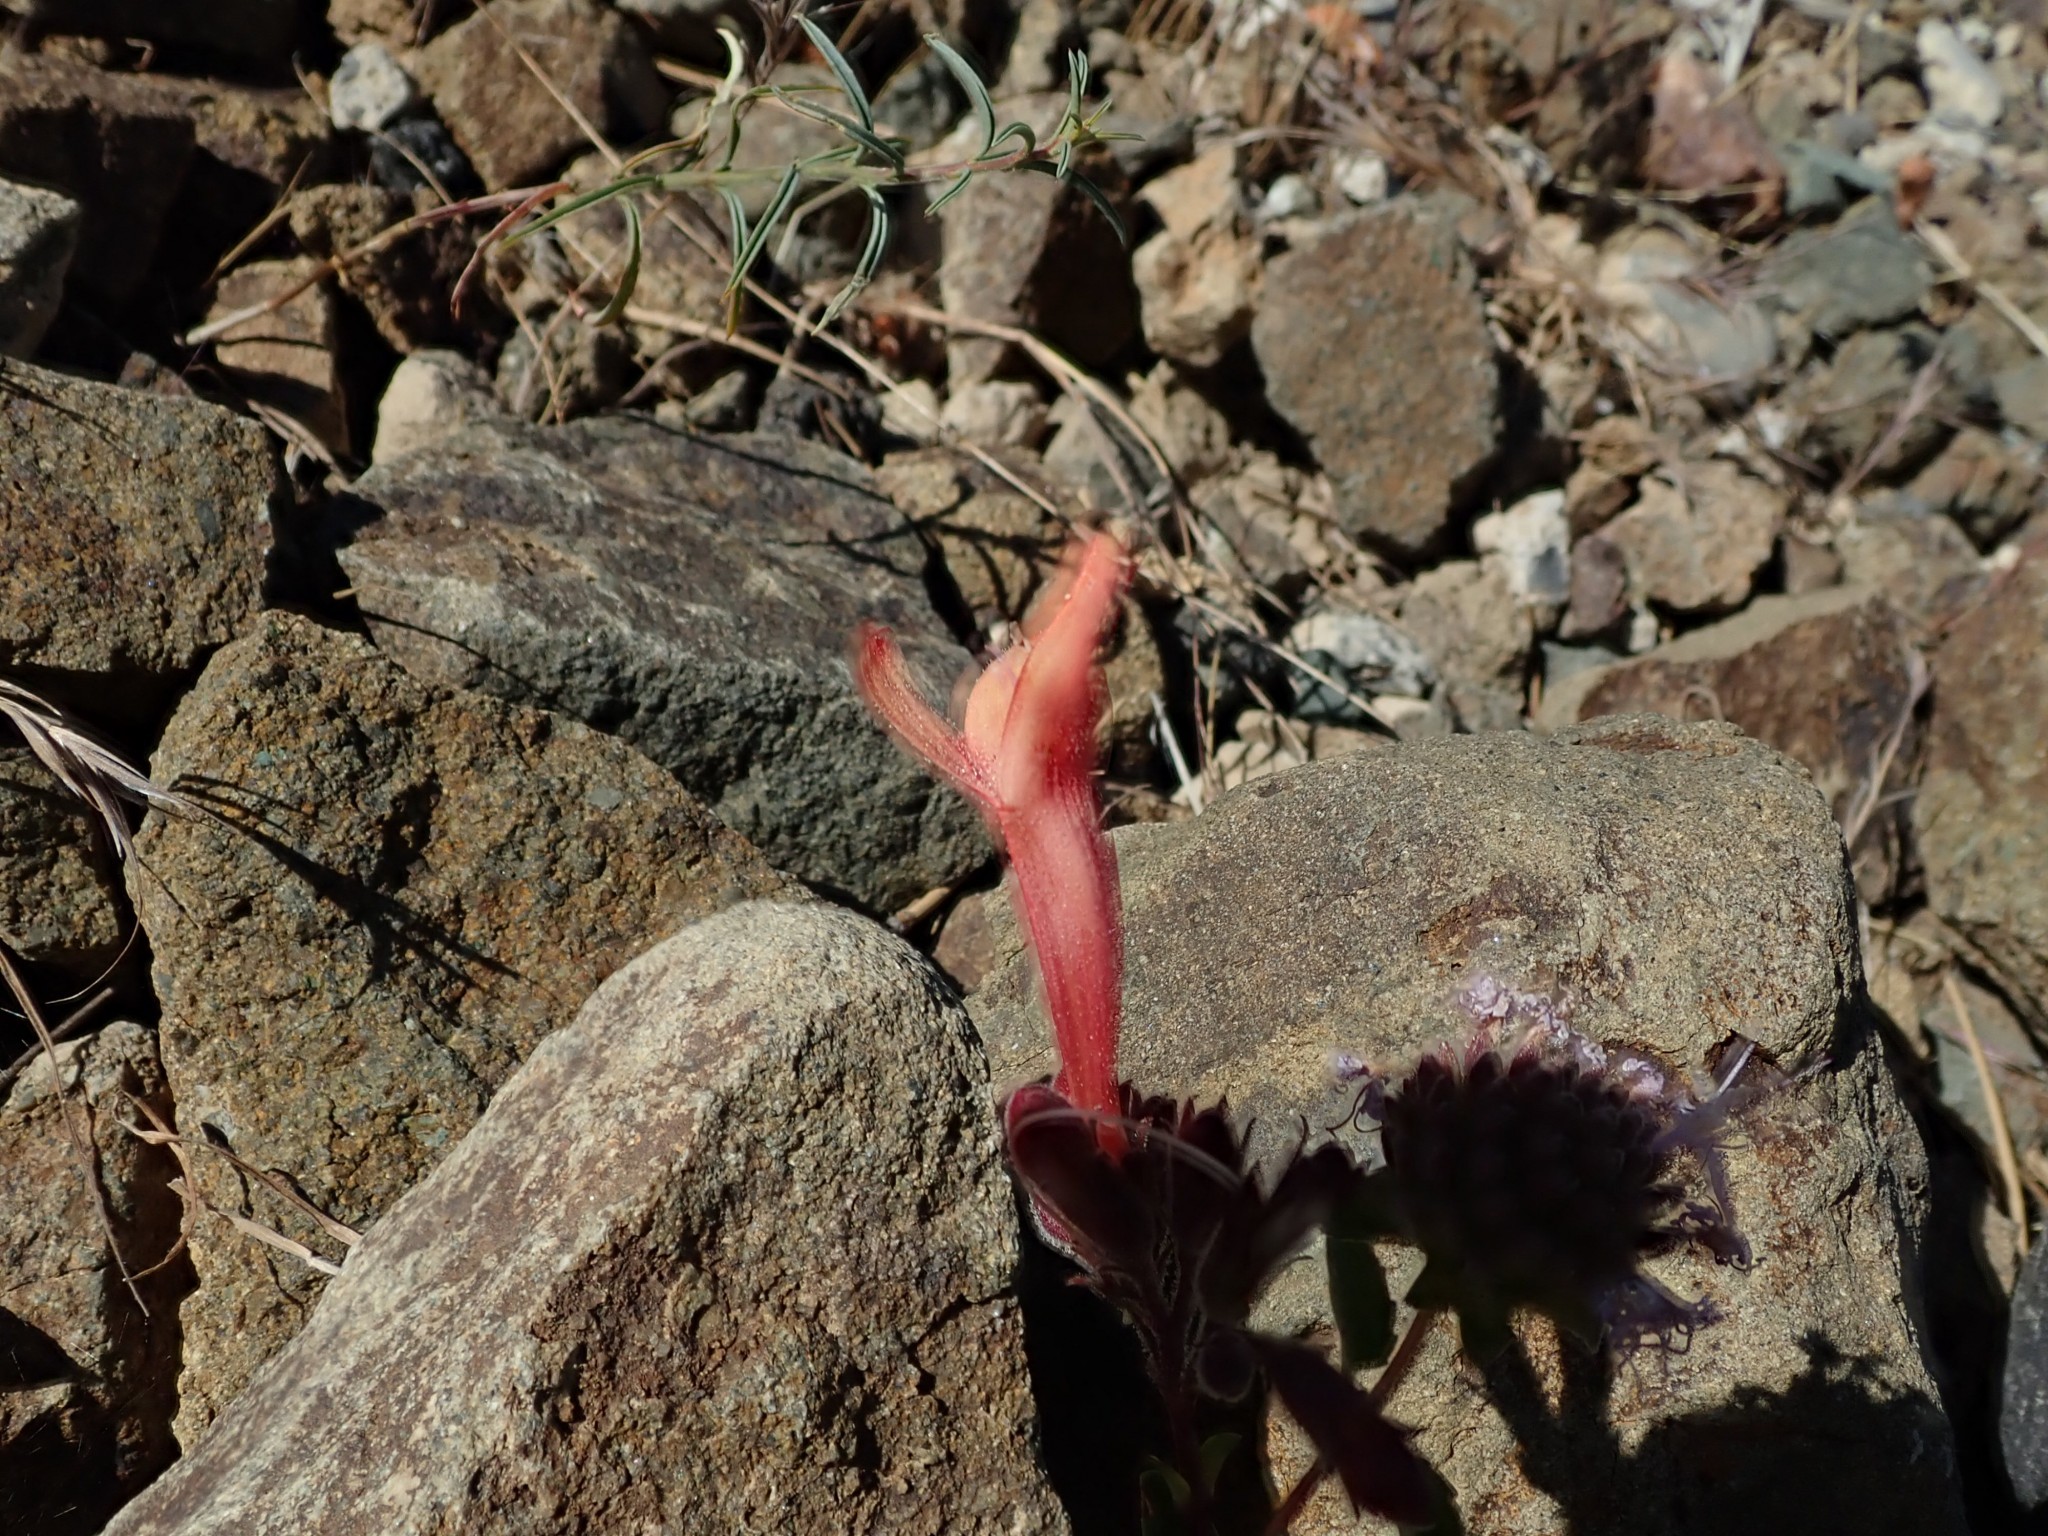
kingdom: Plantae
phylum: Tracheophyta
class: Magnoliopsida
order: Lamiales
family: Plantaginaceae
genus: Keckiella
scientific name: Keckiella corymbosa
